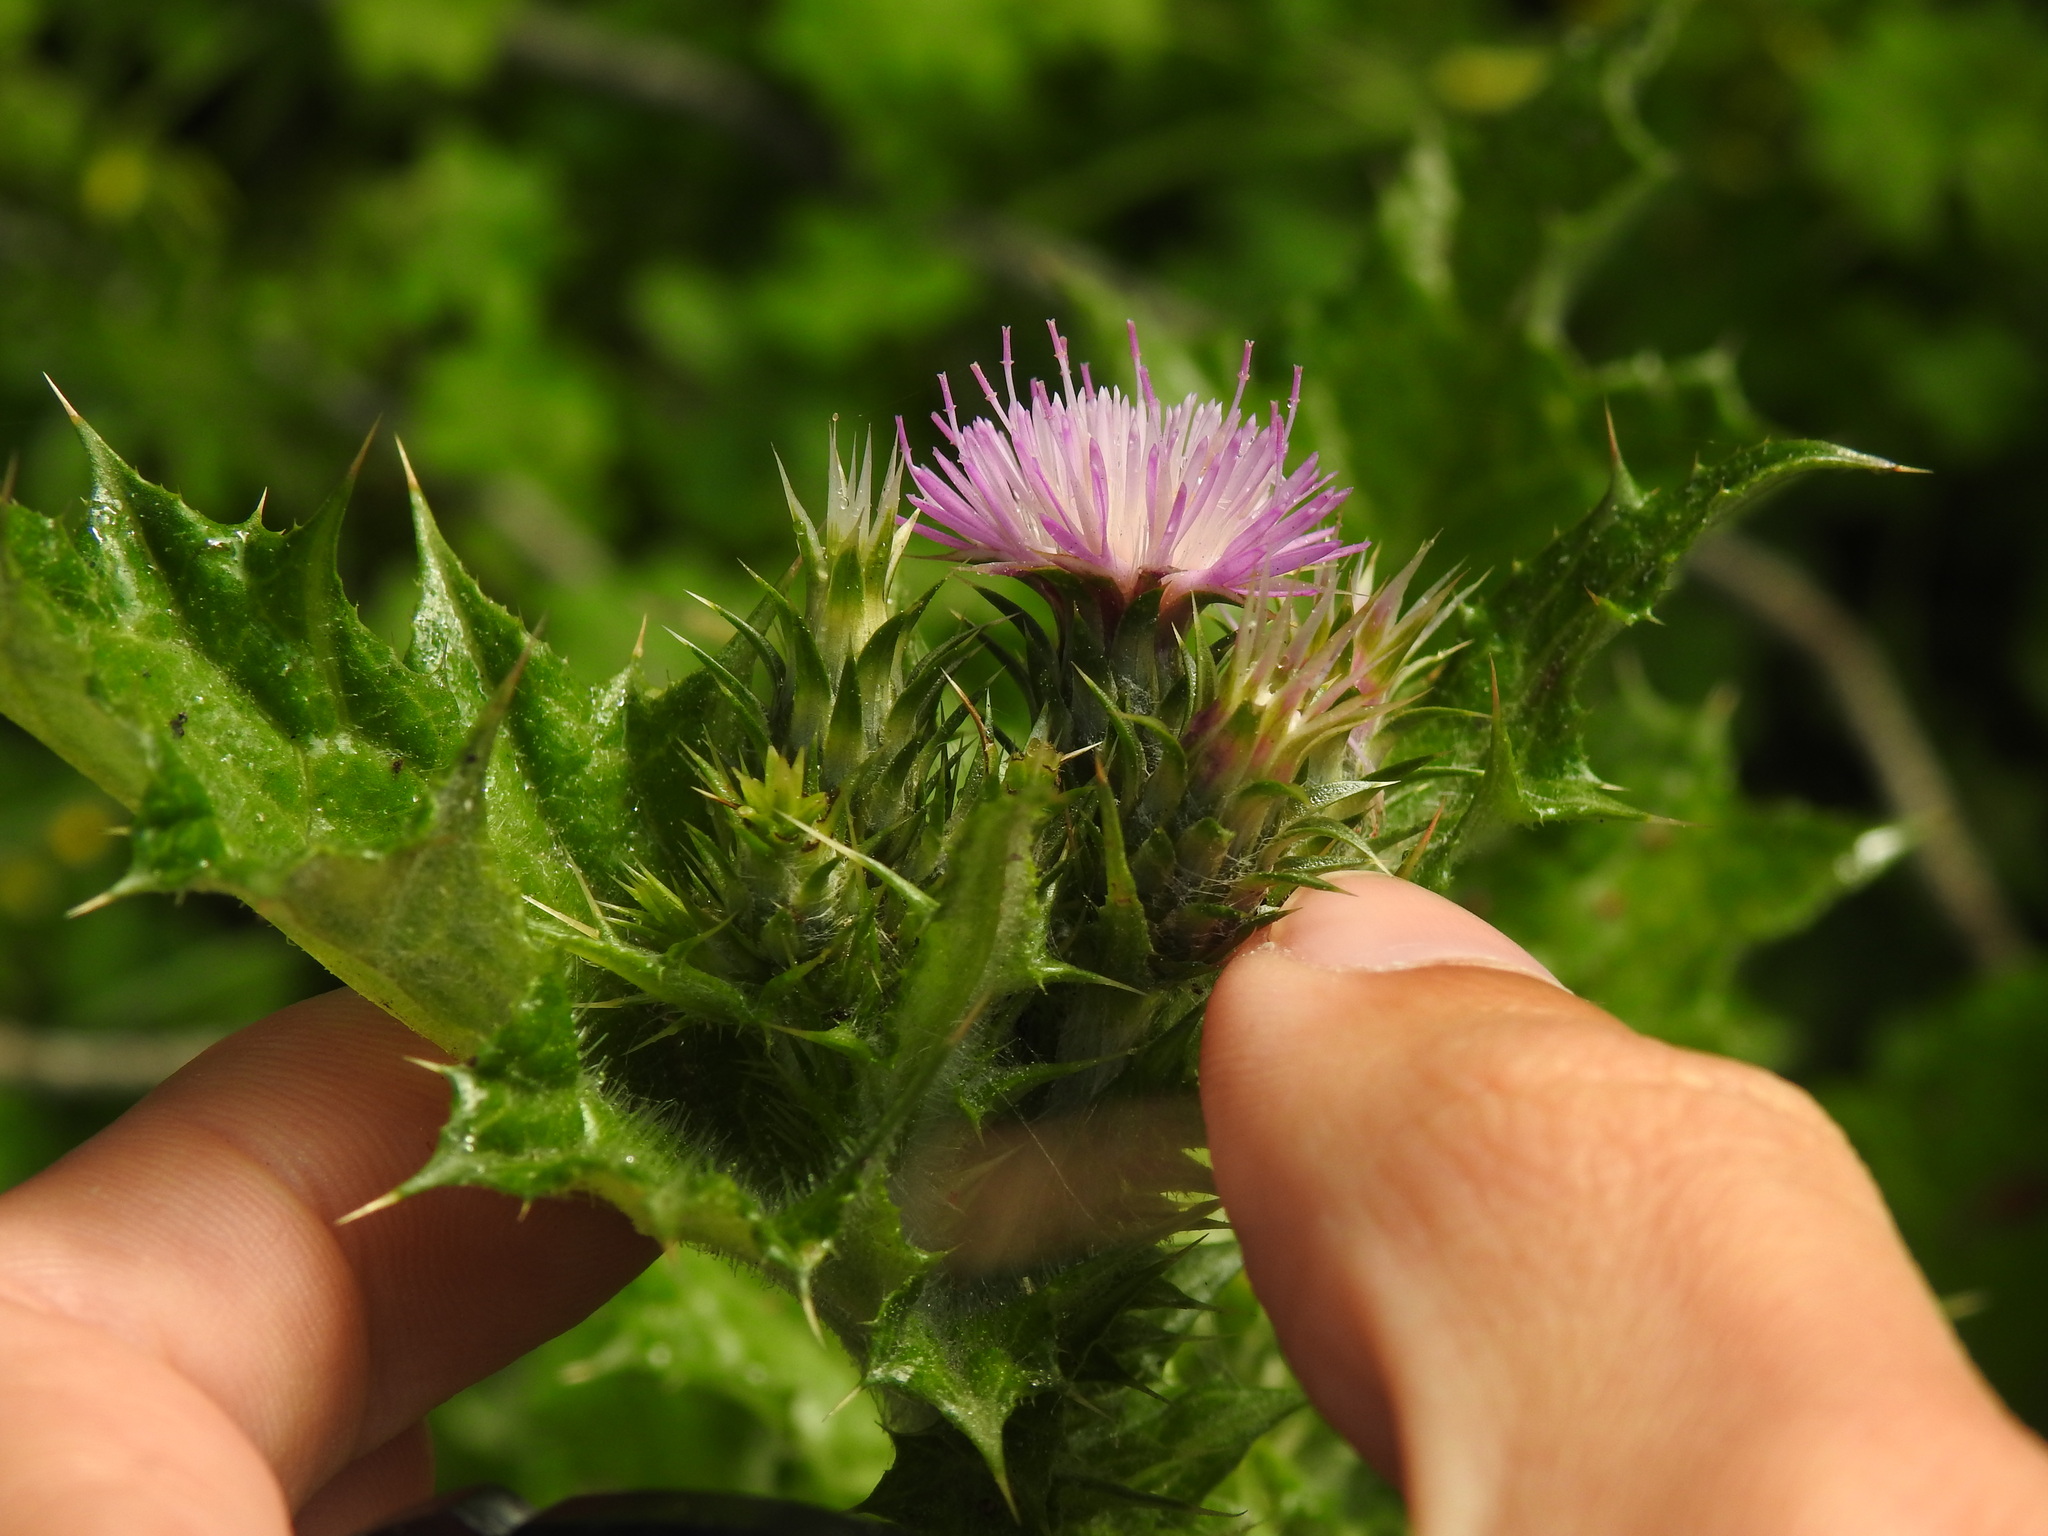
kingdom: Plantae
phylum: Tracheophyta
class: Magnoliopsida
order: Asterales
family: Asteraceae
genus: Carduus
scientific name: Carduus tenuiflorus
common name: Slender thistle
